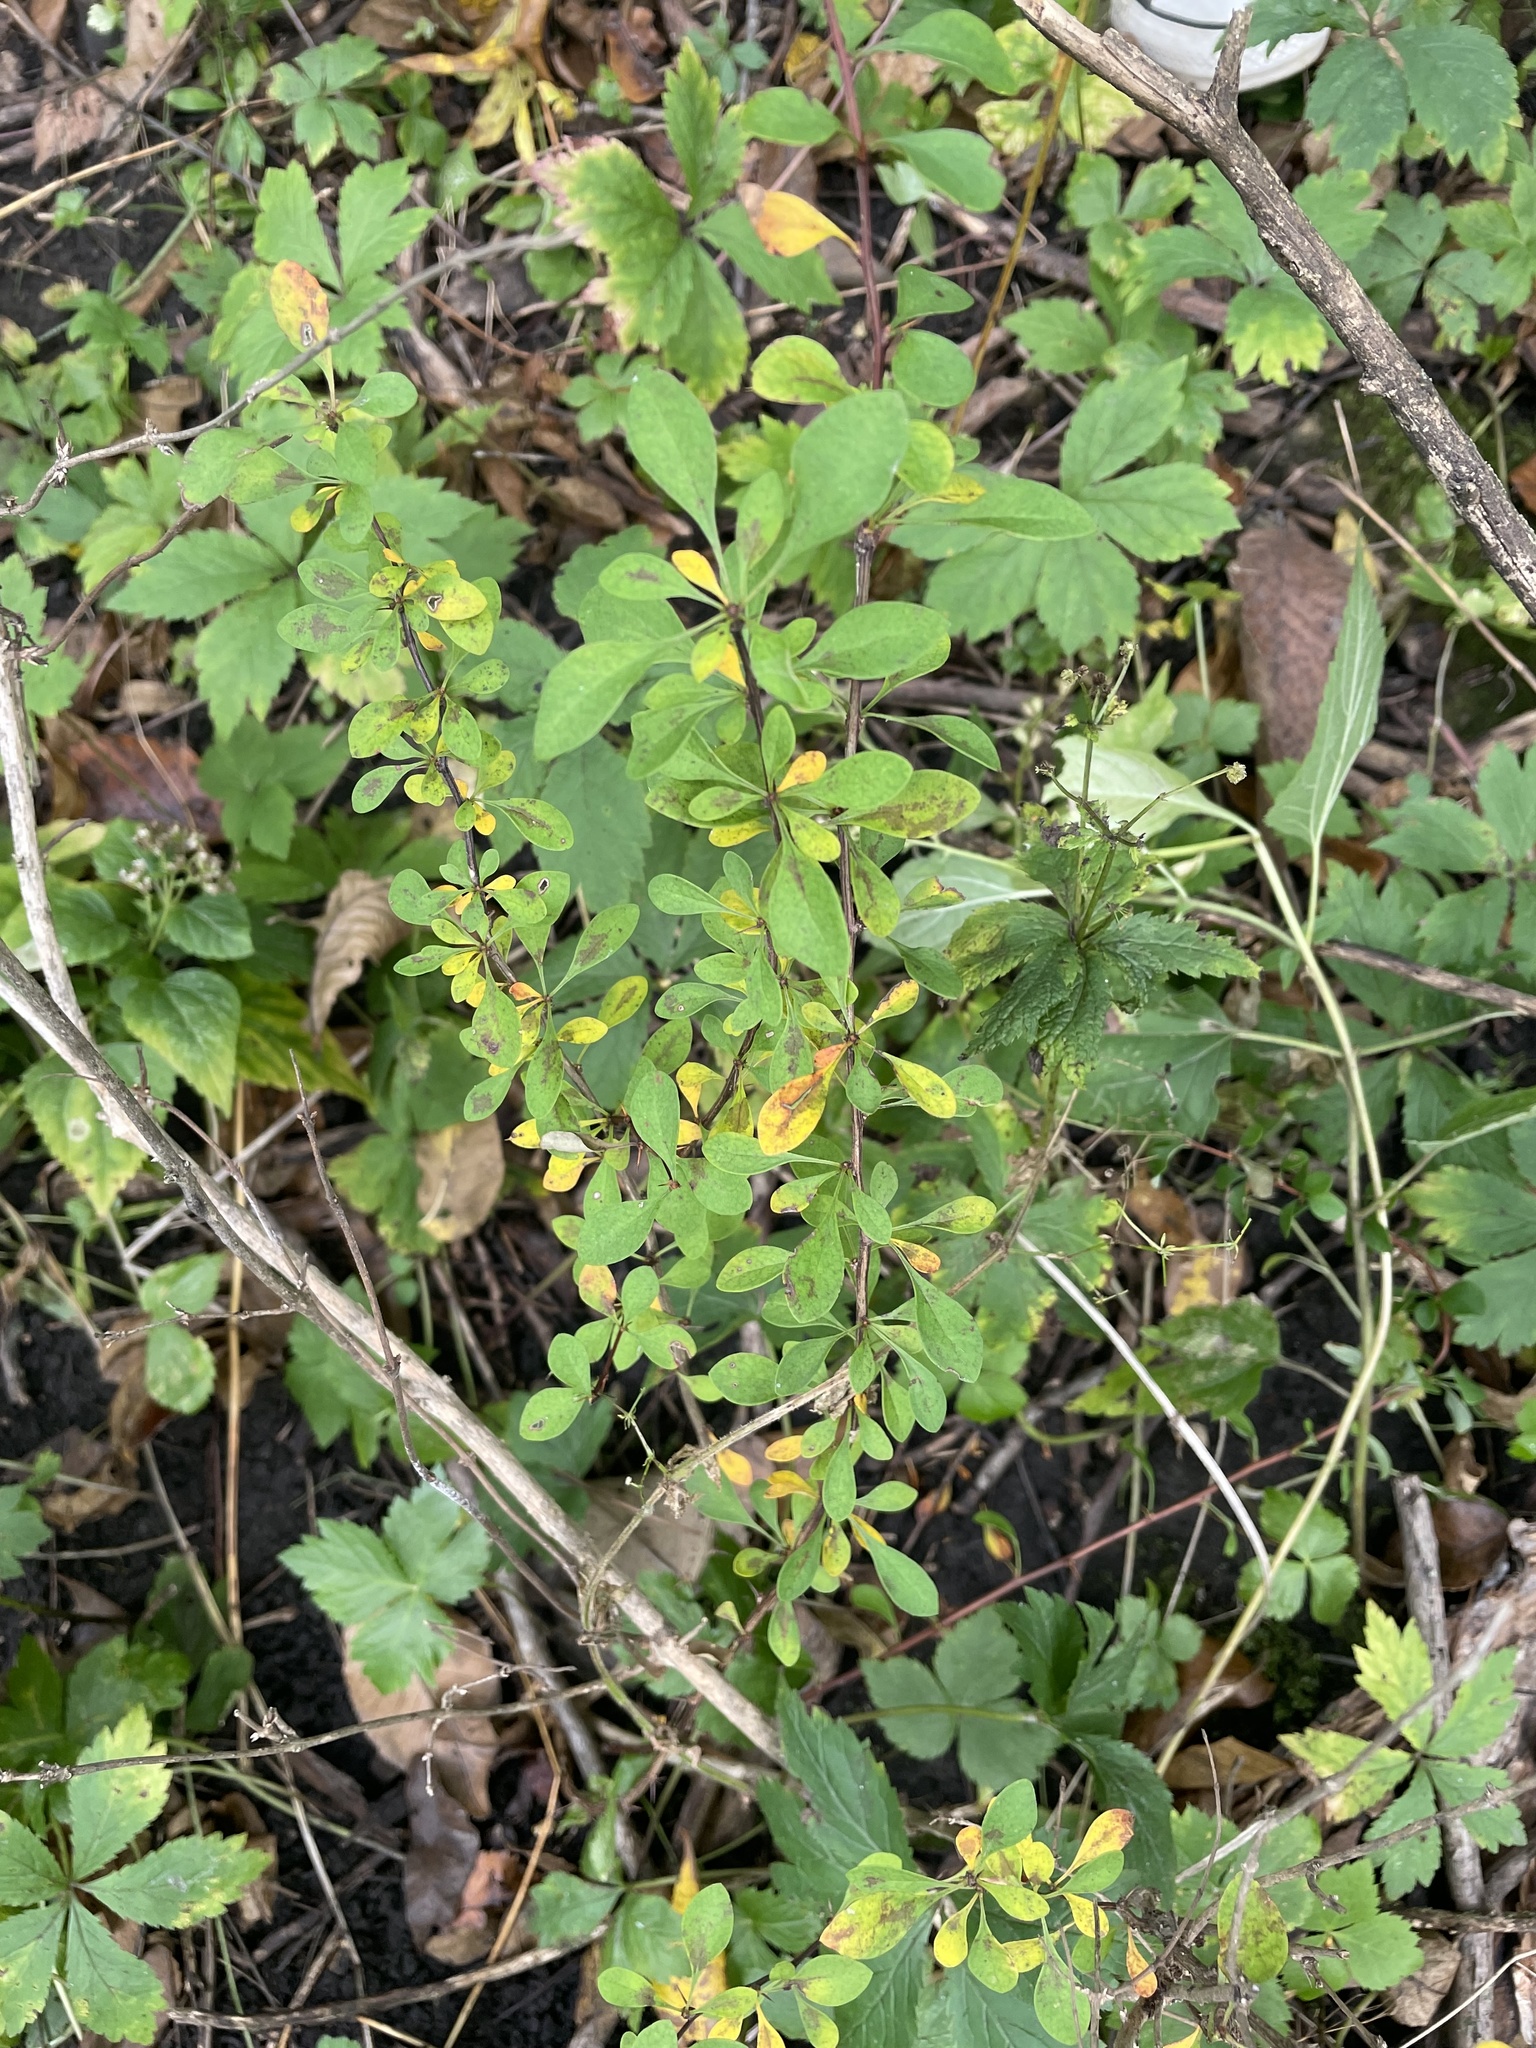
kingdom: Plantae
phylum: Tracheophyta
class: Magnoliopsida
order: Ranunculales
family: Berberidaceae
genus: Berberis
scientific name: Berberis thunbergii
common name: Japanese barberry
